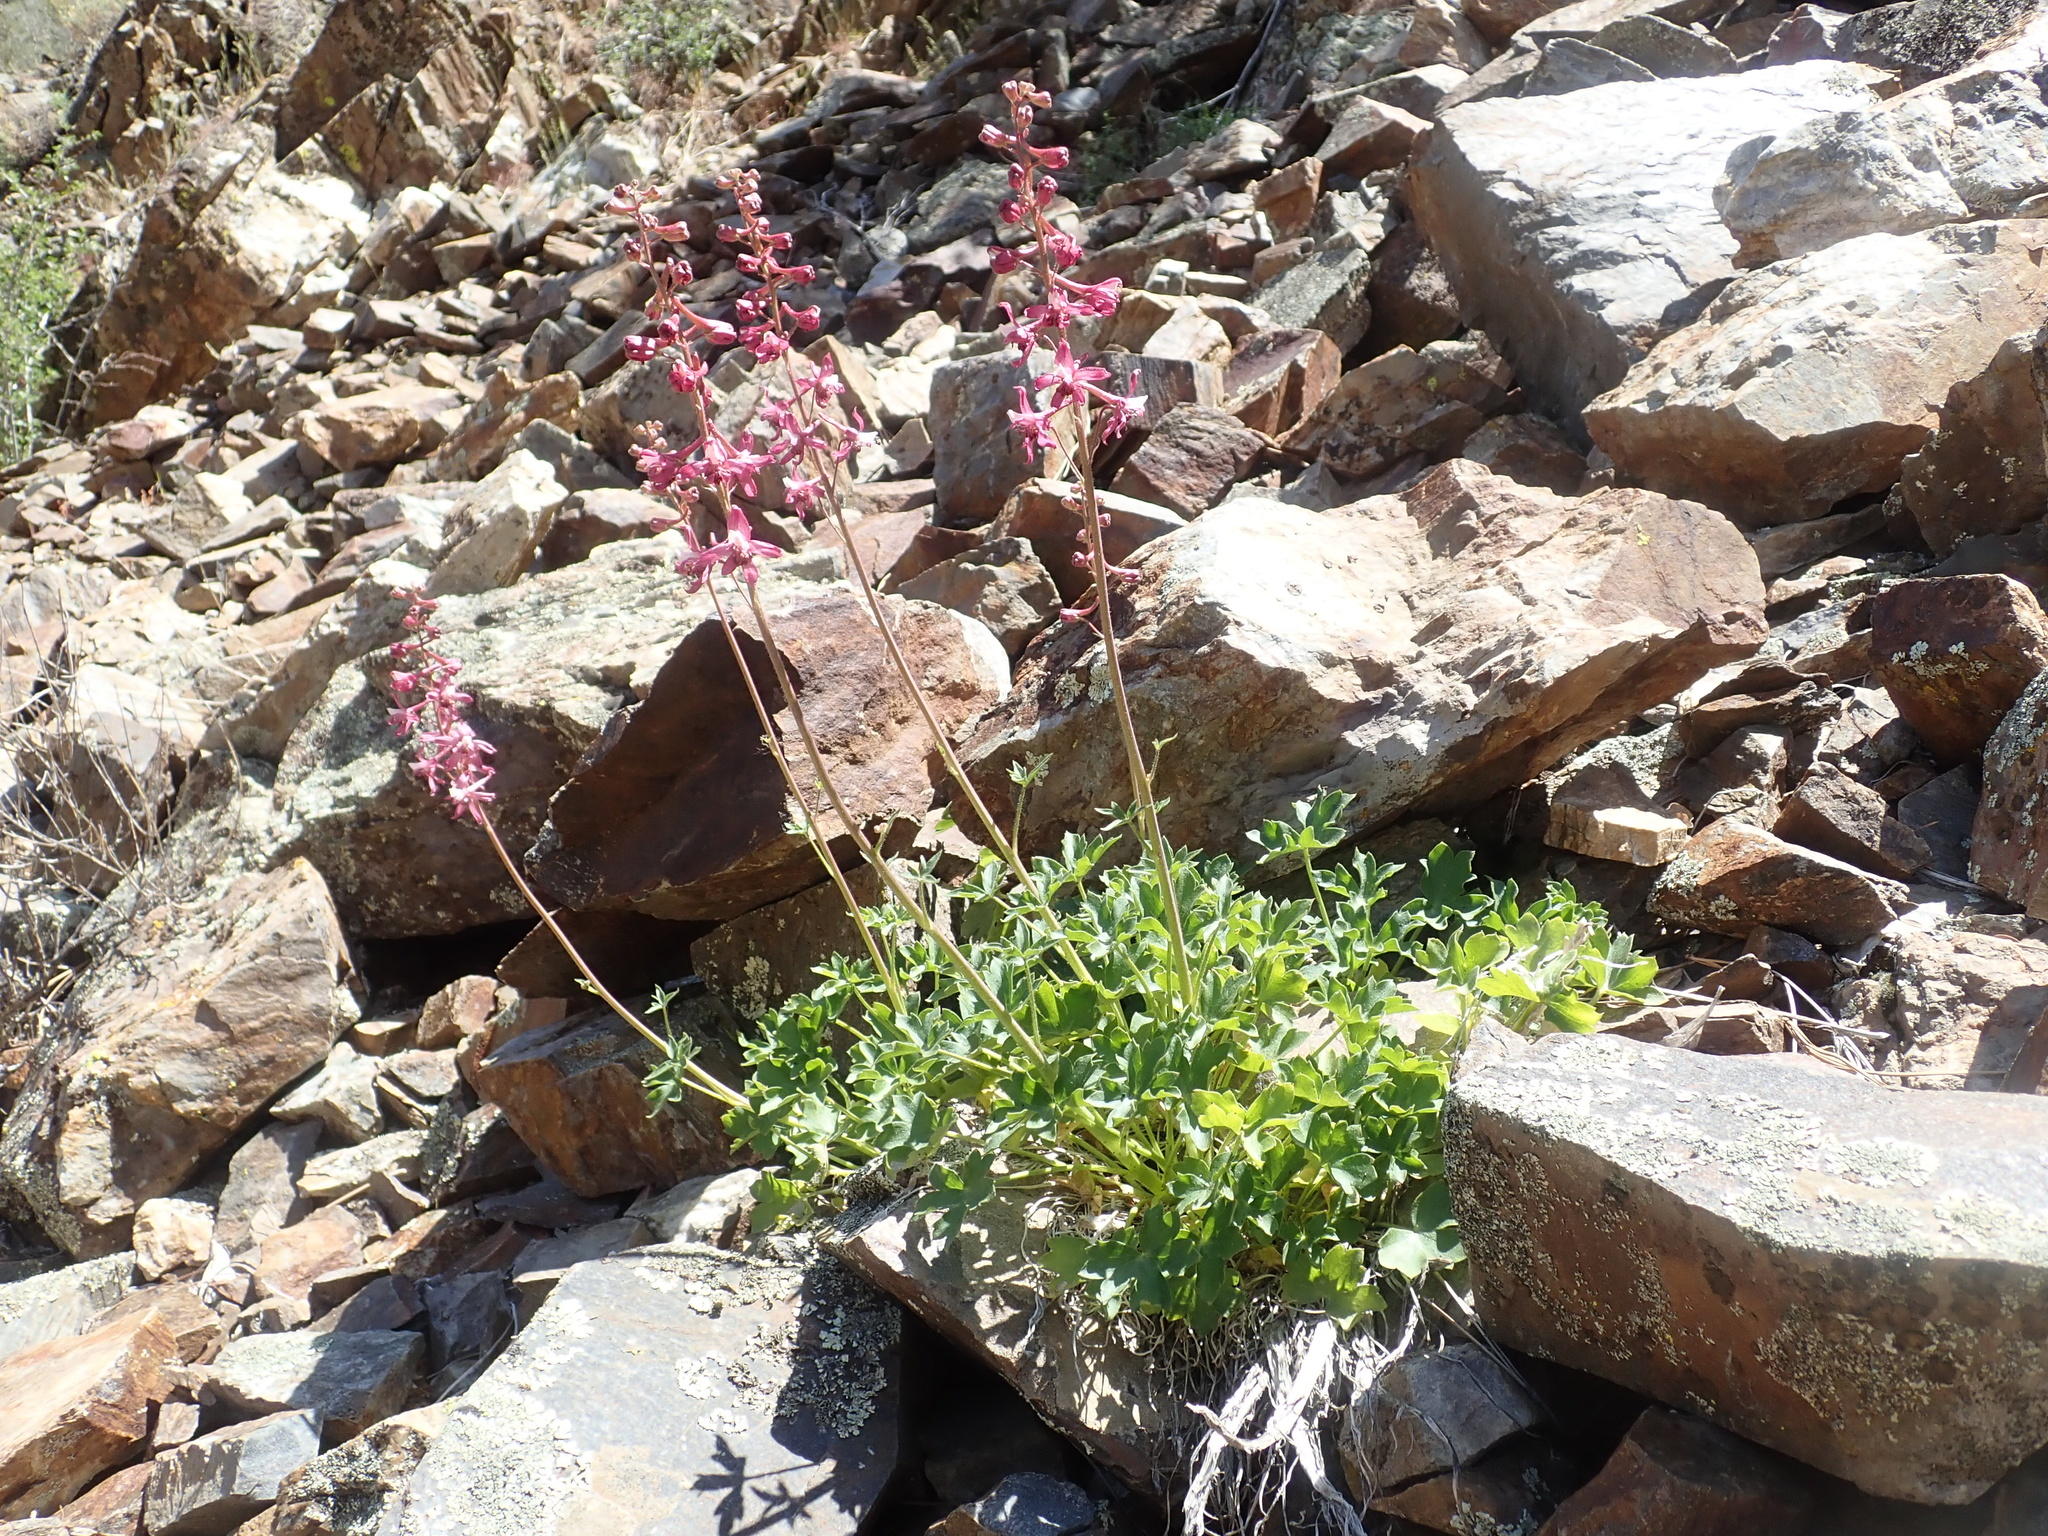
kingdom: Plantae
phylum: Tracheophyta
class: Magnoliopsida
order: Ranunculales
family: Ranunculaceae
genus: Delphinium
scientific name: Delphinium purpusii
